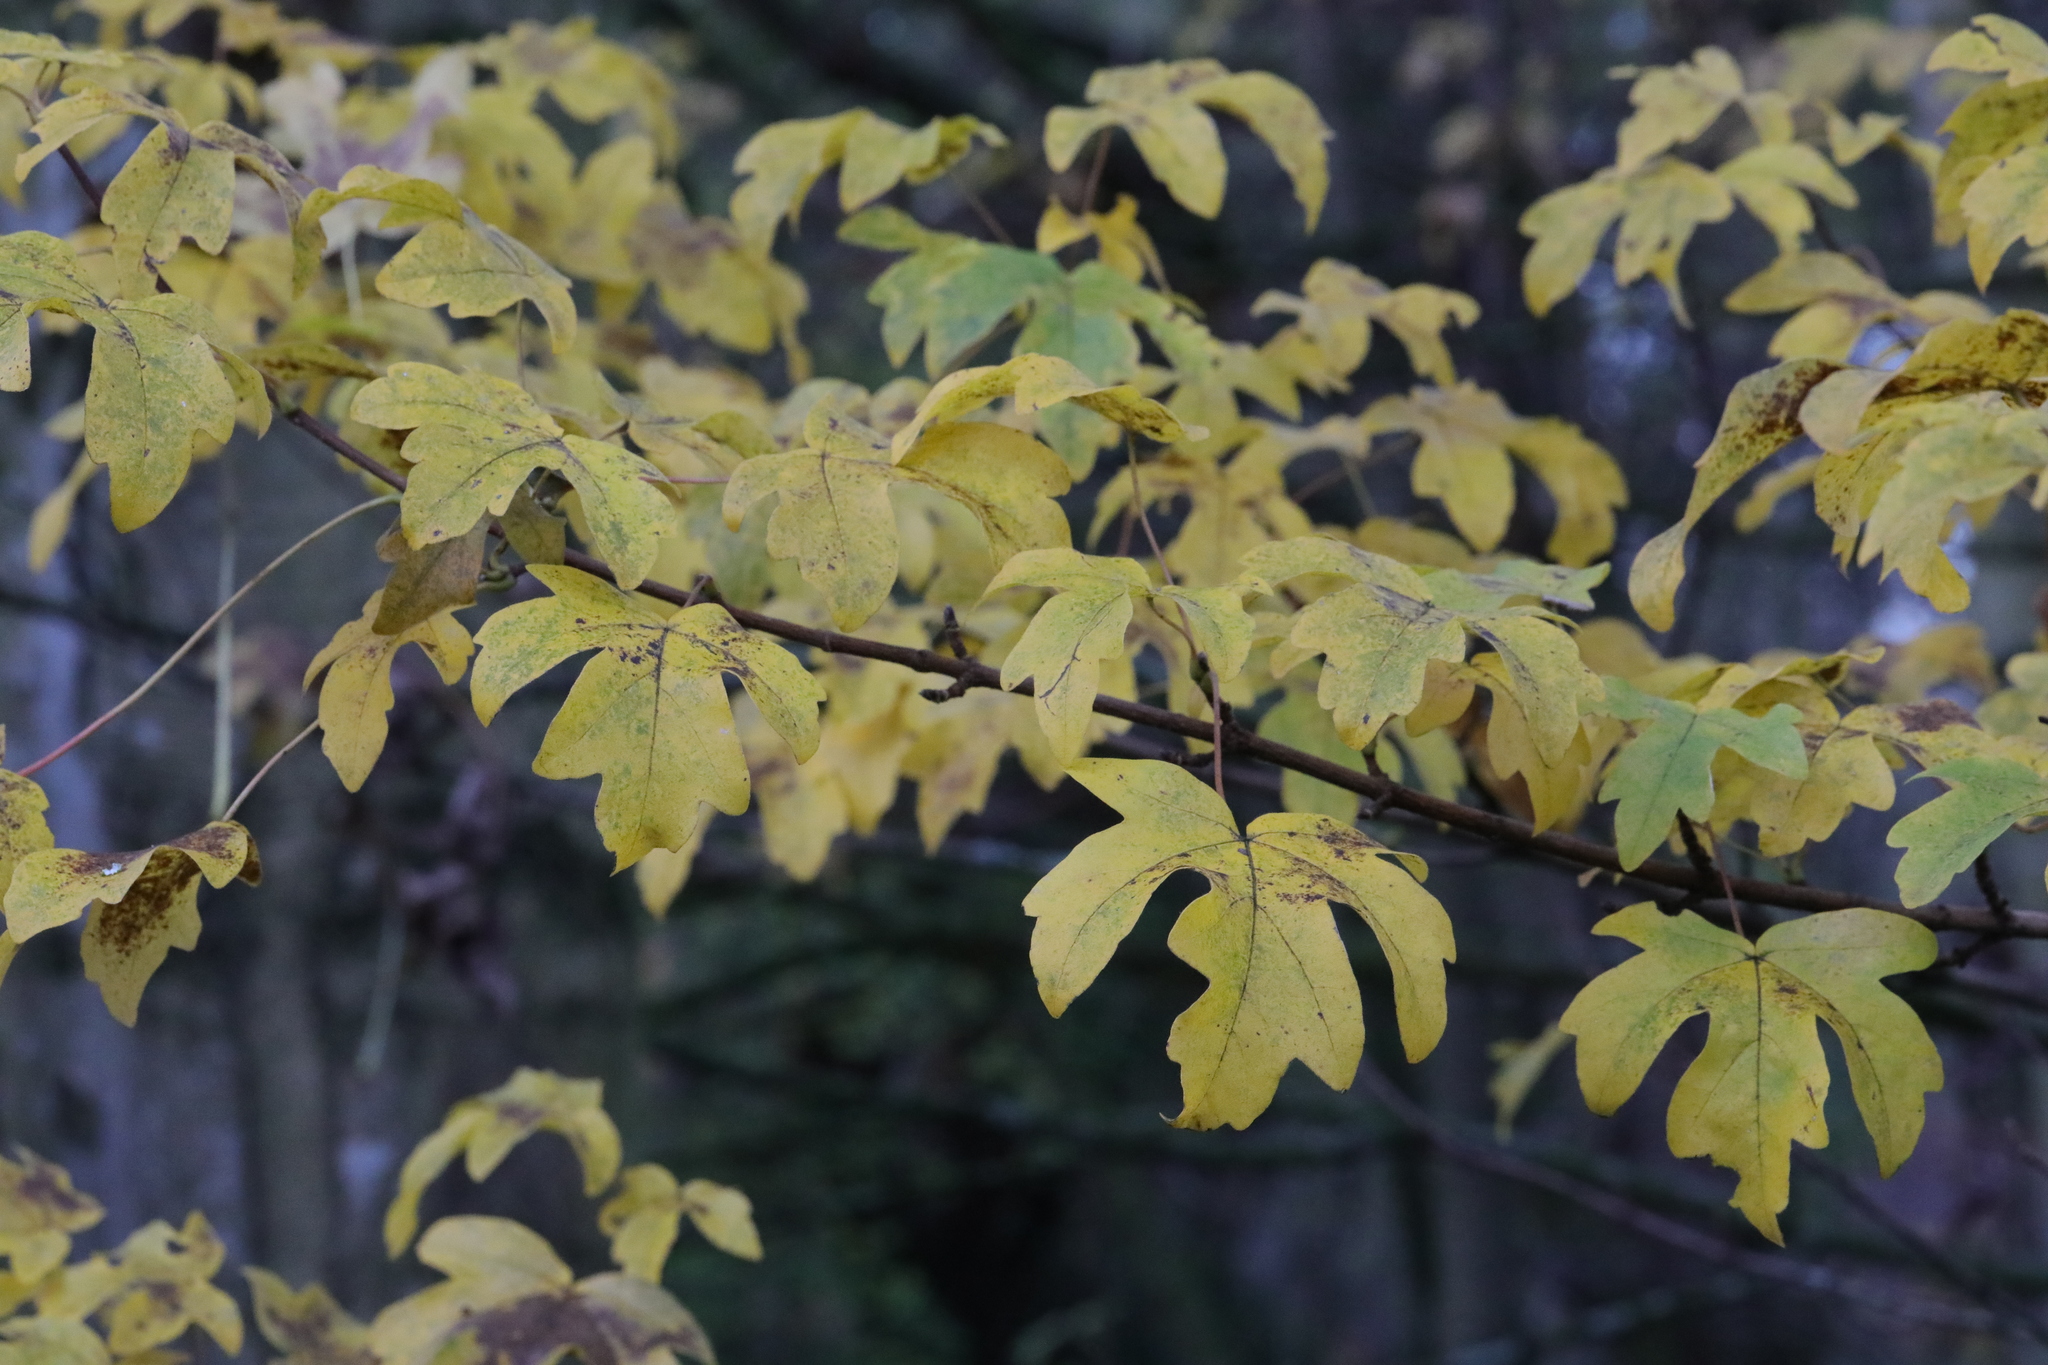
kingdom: Plantae
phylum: Tracheophyta
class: Magnoliopsida
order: Sapindales
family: Sapindaceae
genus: Acer
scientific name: Acer campestre
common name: Field maple
